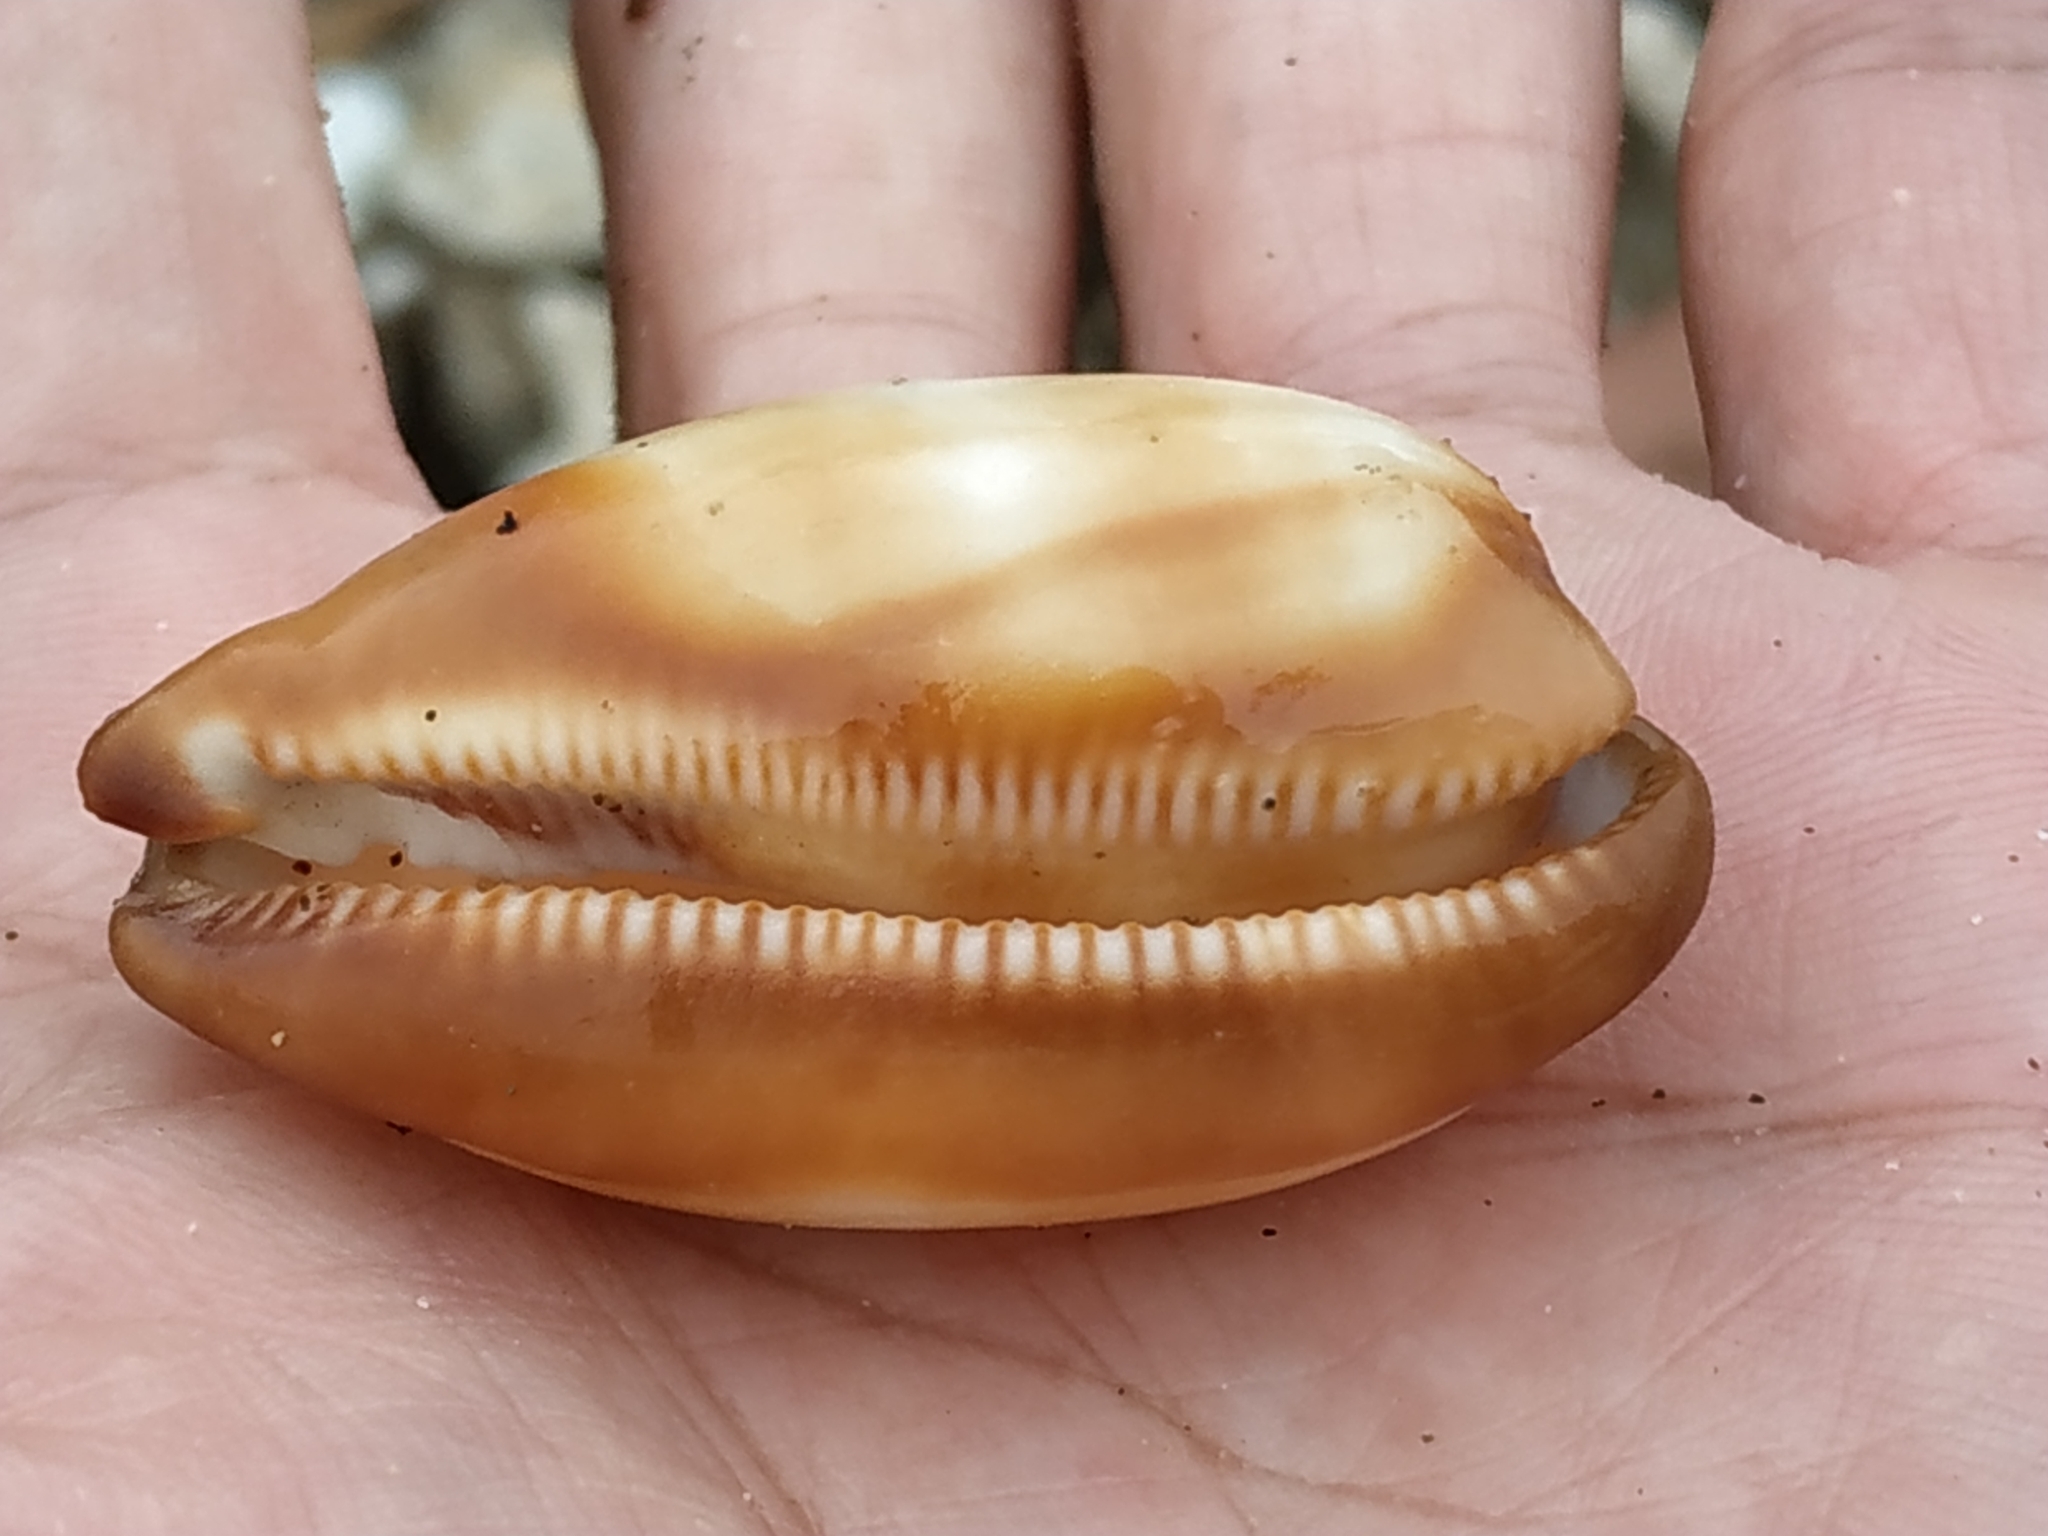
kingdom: Animalia
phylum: Mollusca
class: Gastropoda
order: Littorinimorpha
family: Cypraeidae
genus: Talparia
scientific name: Talparia talpa
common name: Mole cowrie
